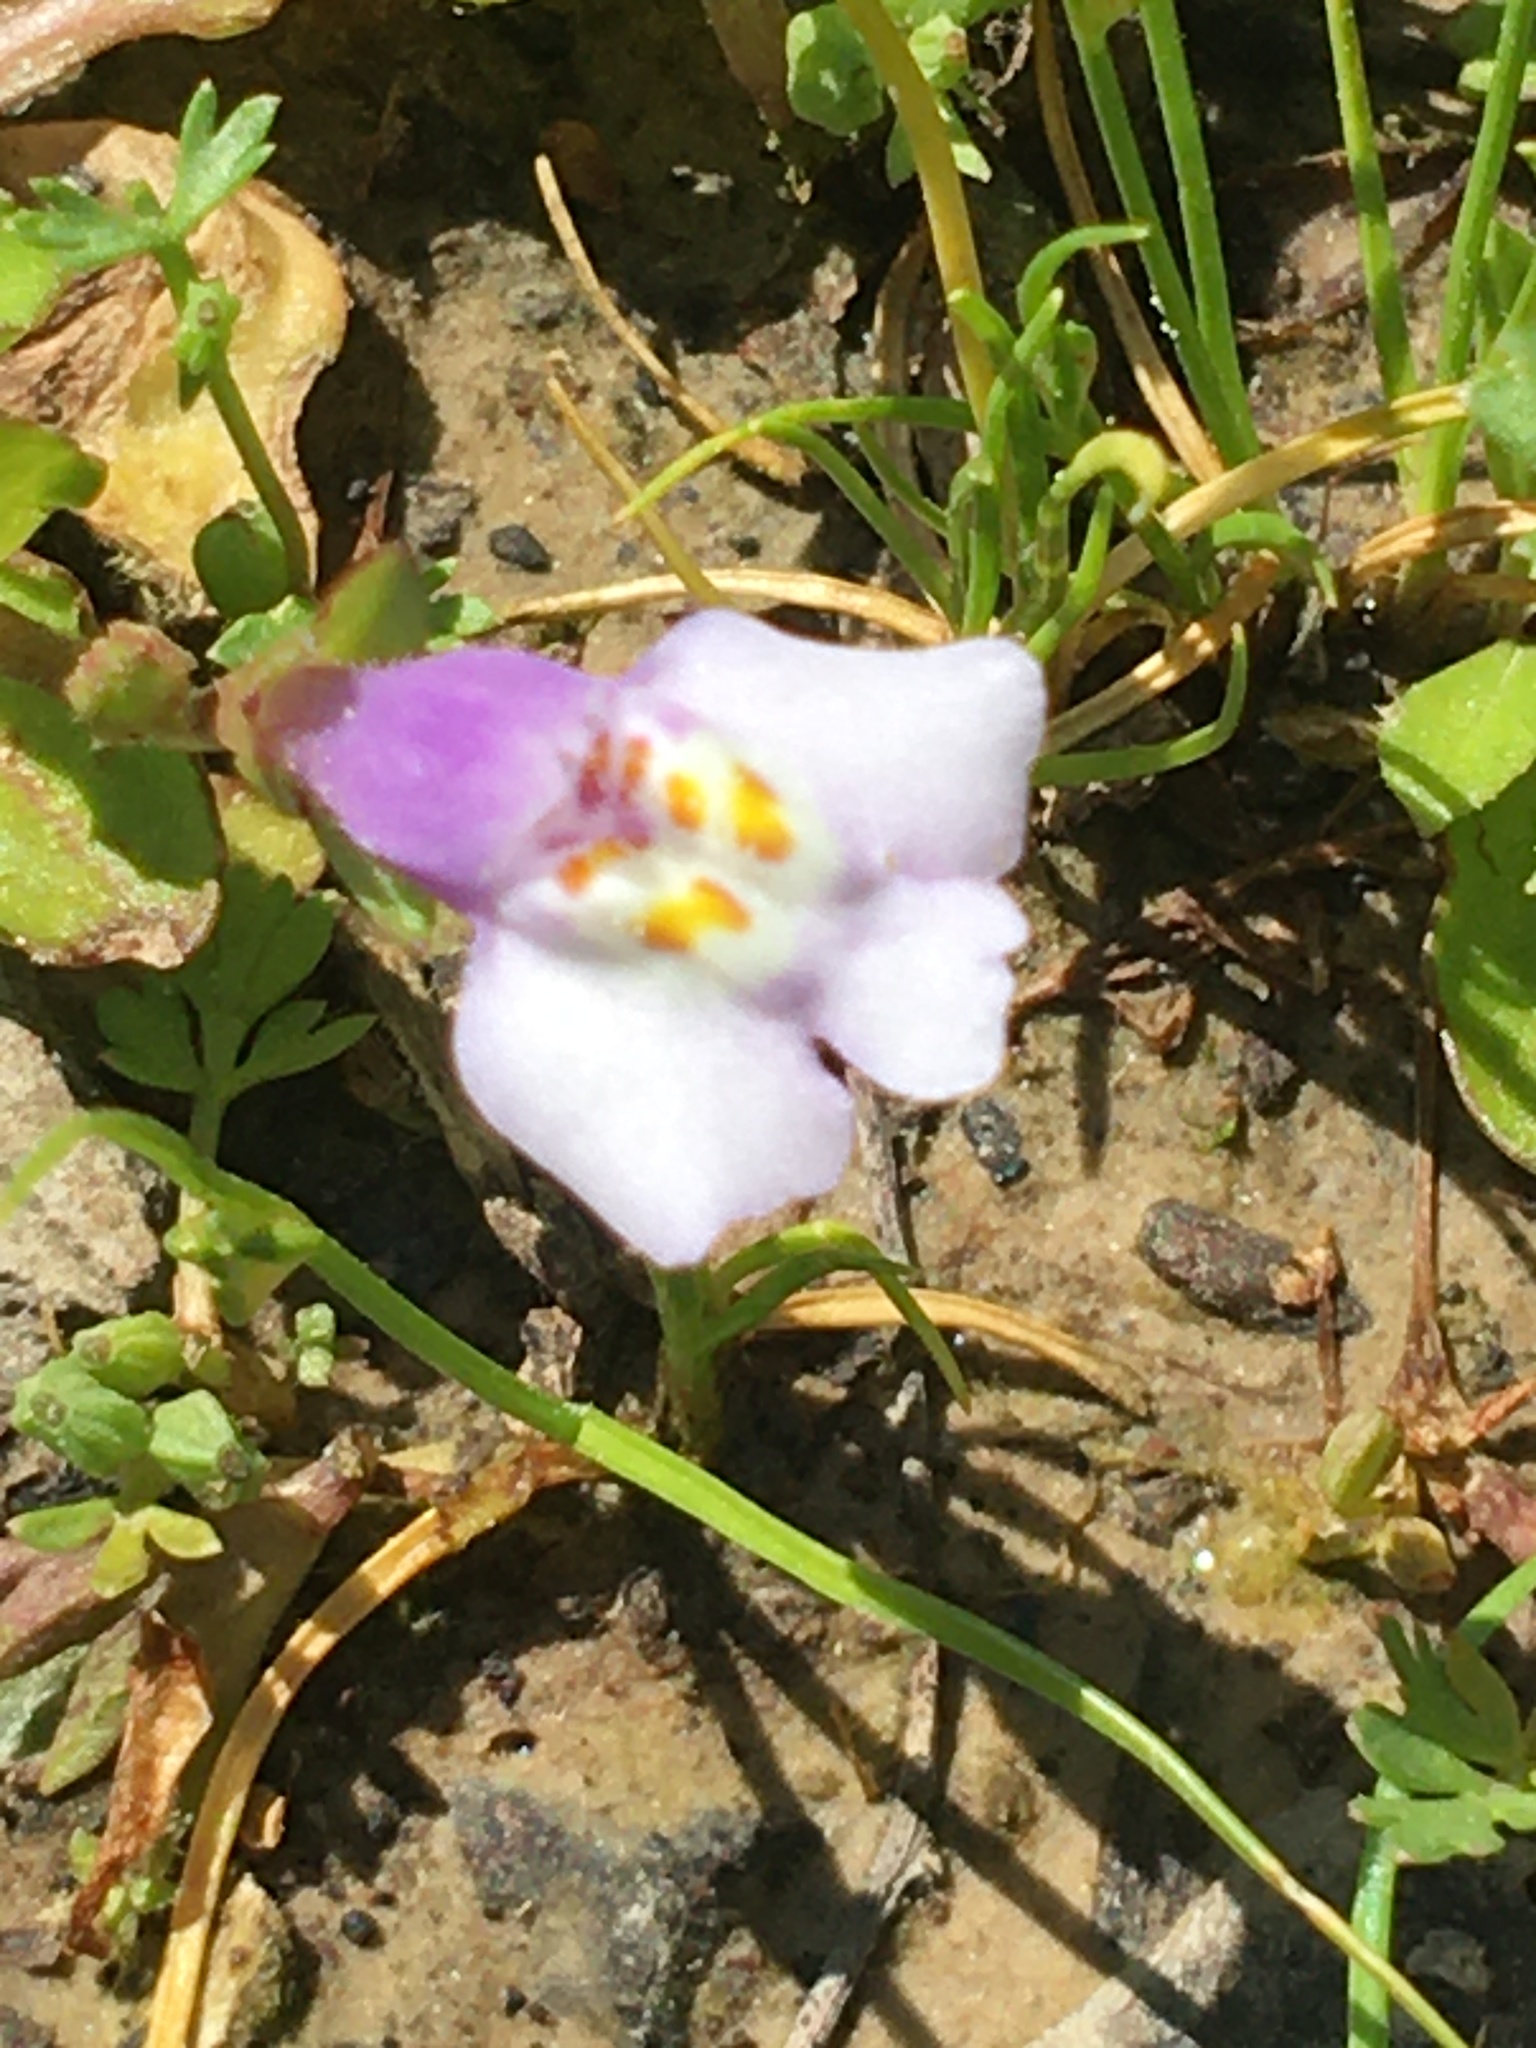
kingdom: Plantae
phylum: Tracheophyta
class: Magnoliopsida
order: Lamiales
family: Mazaceae
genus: Mazus
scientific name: Mazus pumilus
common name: Japanese mazus
